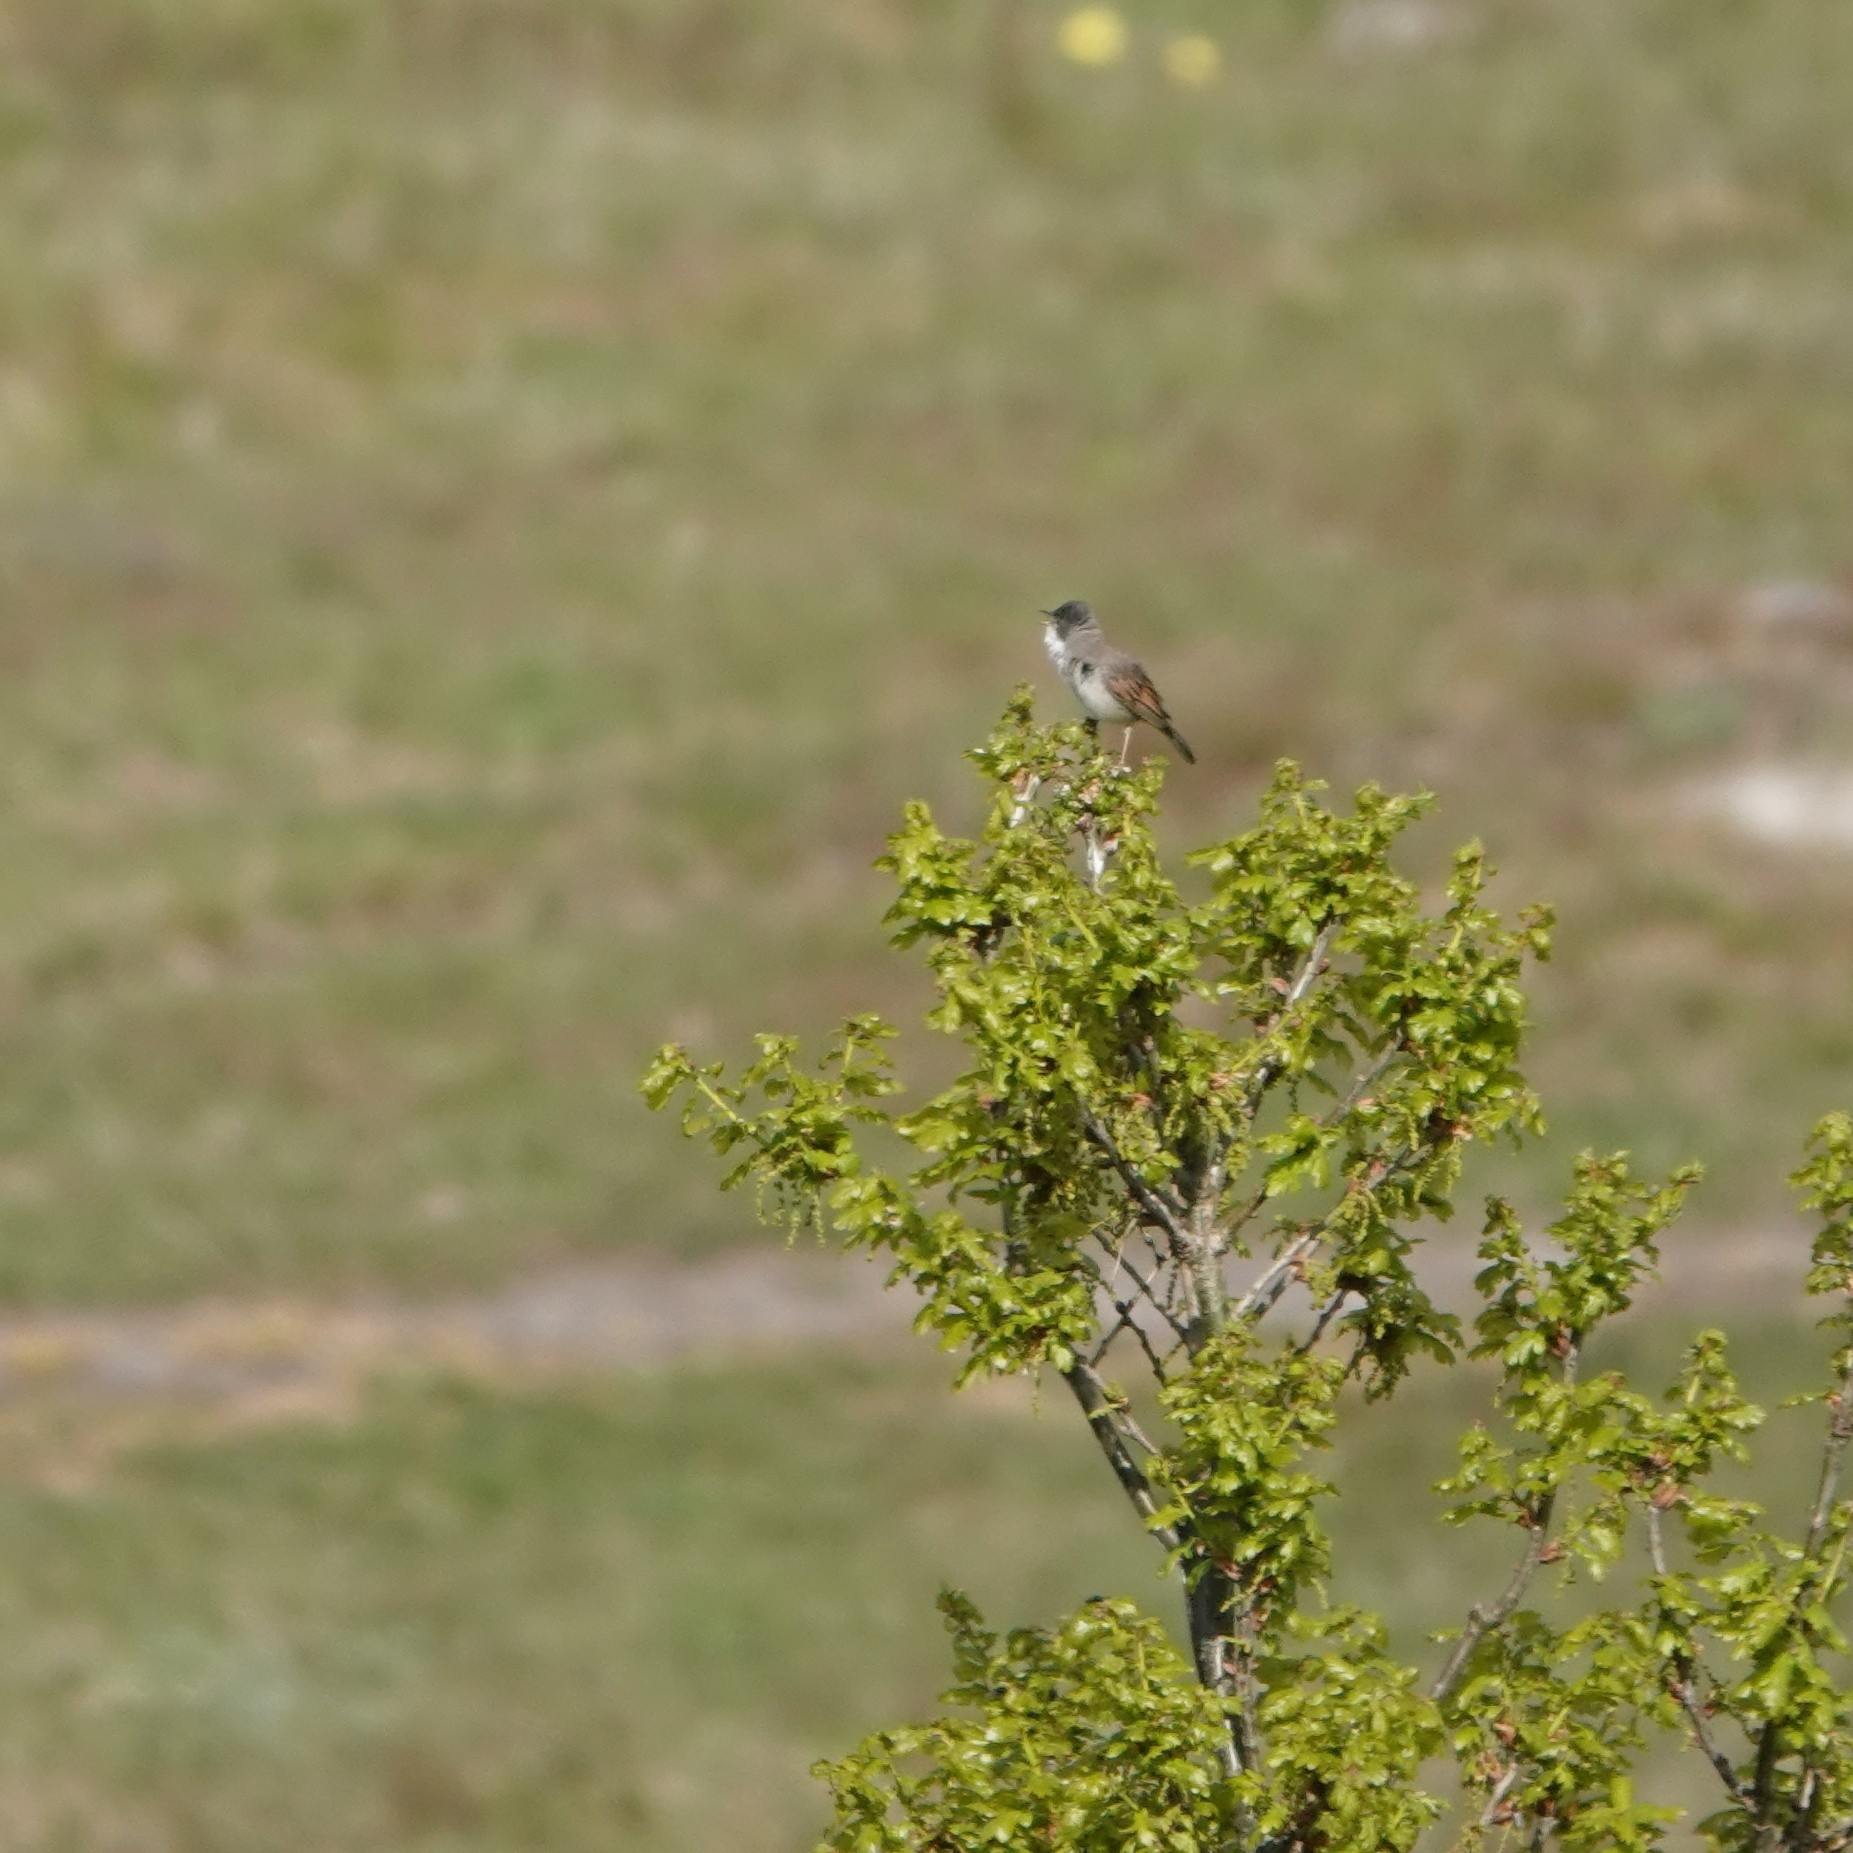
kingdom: Animalia
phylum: Chordata
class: Aves
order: Passeriformes
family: Sylviidae
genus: Sylvia
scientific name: Sylvia communis
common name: Common whitethroat
